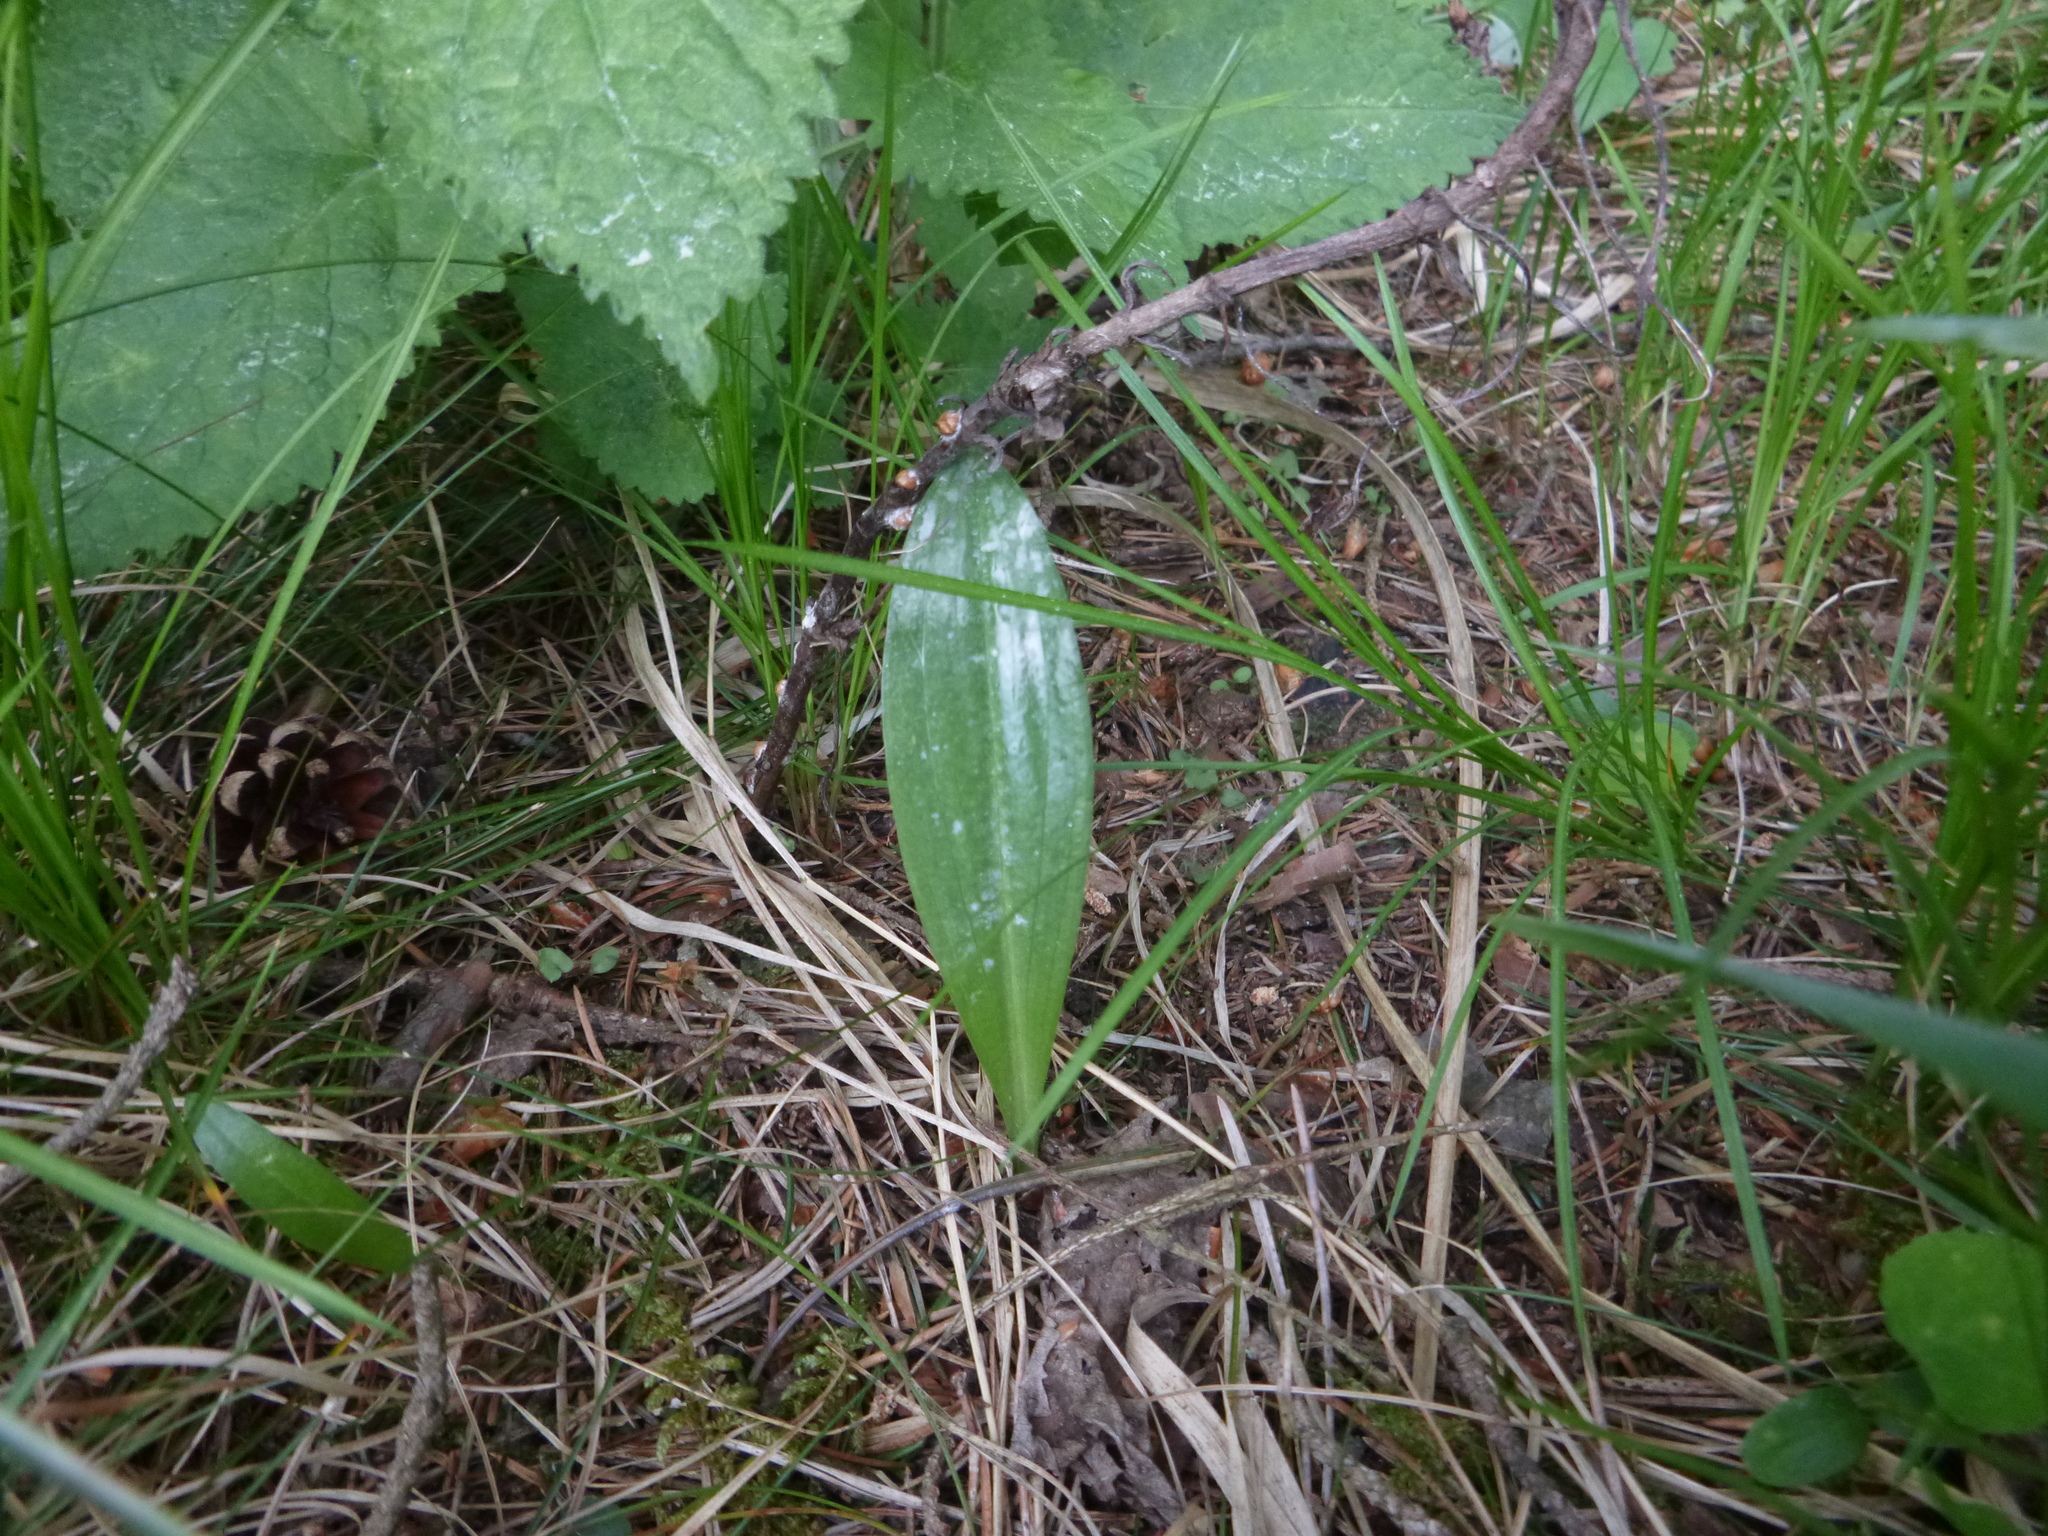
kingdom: Plantae
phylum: Tracheophyta
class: Liliopsida
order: Asparagales
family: Orchidaceae
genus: Platanthera
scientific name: Platanthera chlorantha
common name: Greater butterfly-orchid
